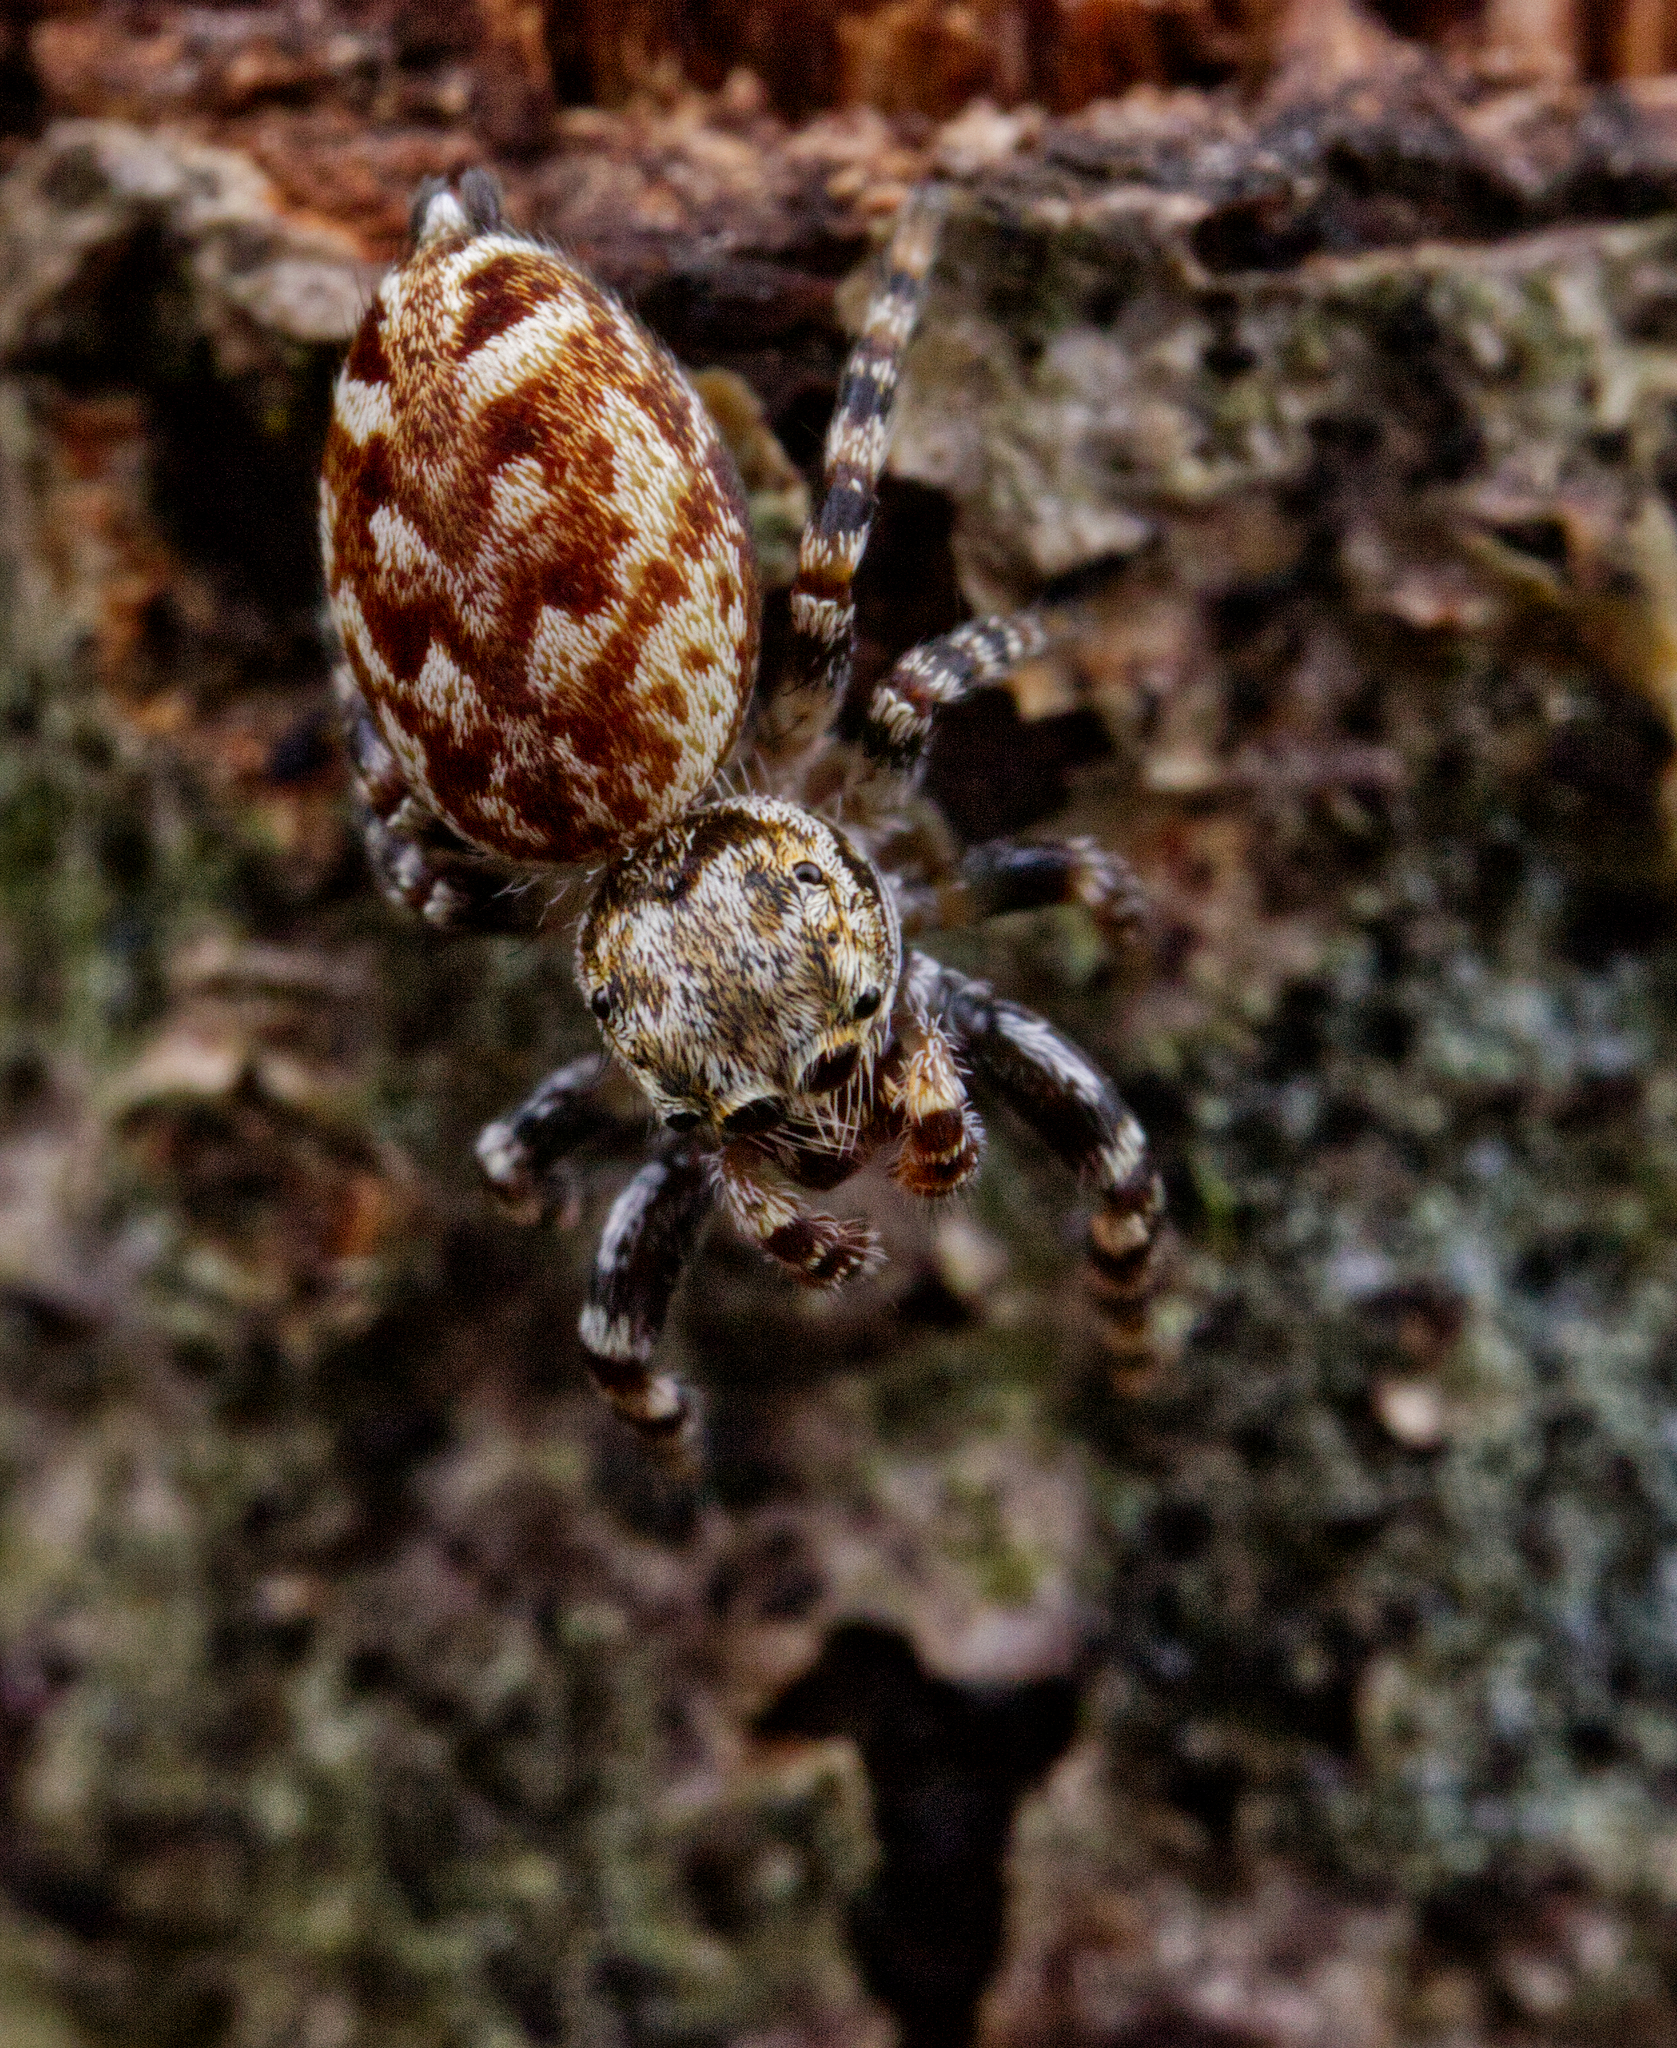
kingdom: Animalia
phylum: Arthropoda
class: Arachnida
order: Araneae
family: Salticidae
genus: Pelegrina
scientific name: Pelegrina galathea
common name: Jumping spiders
